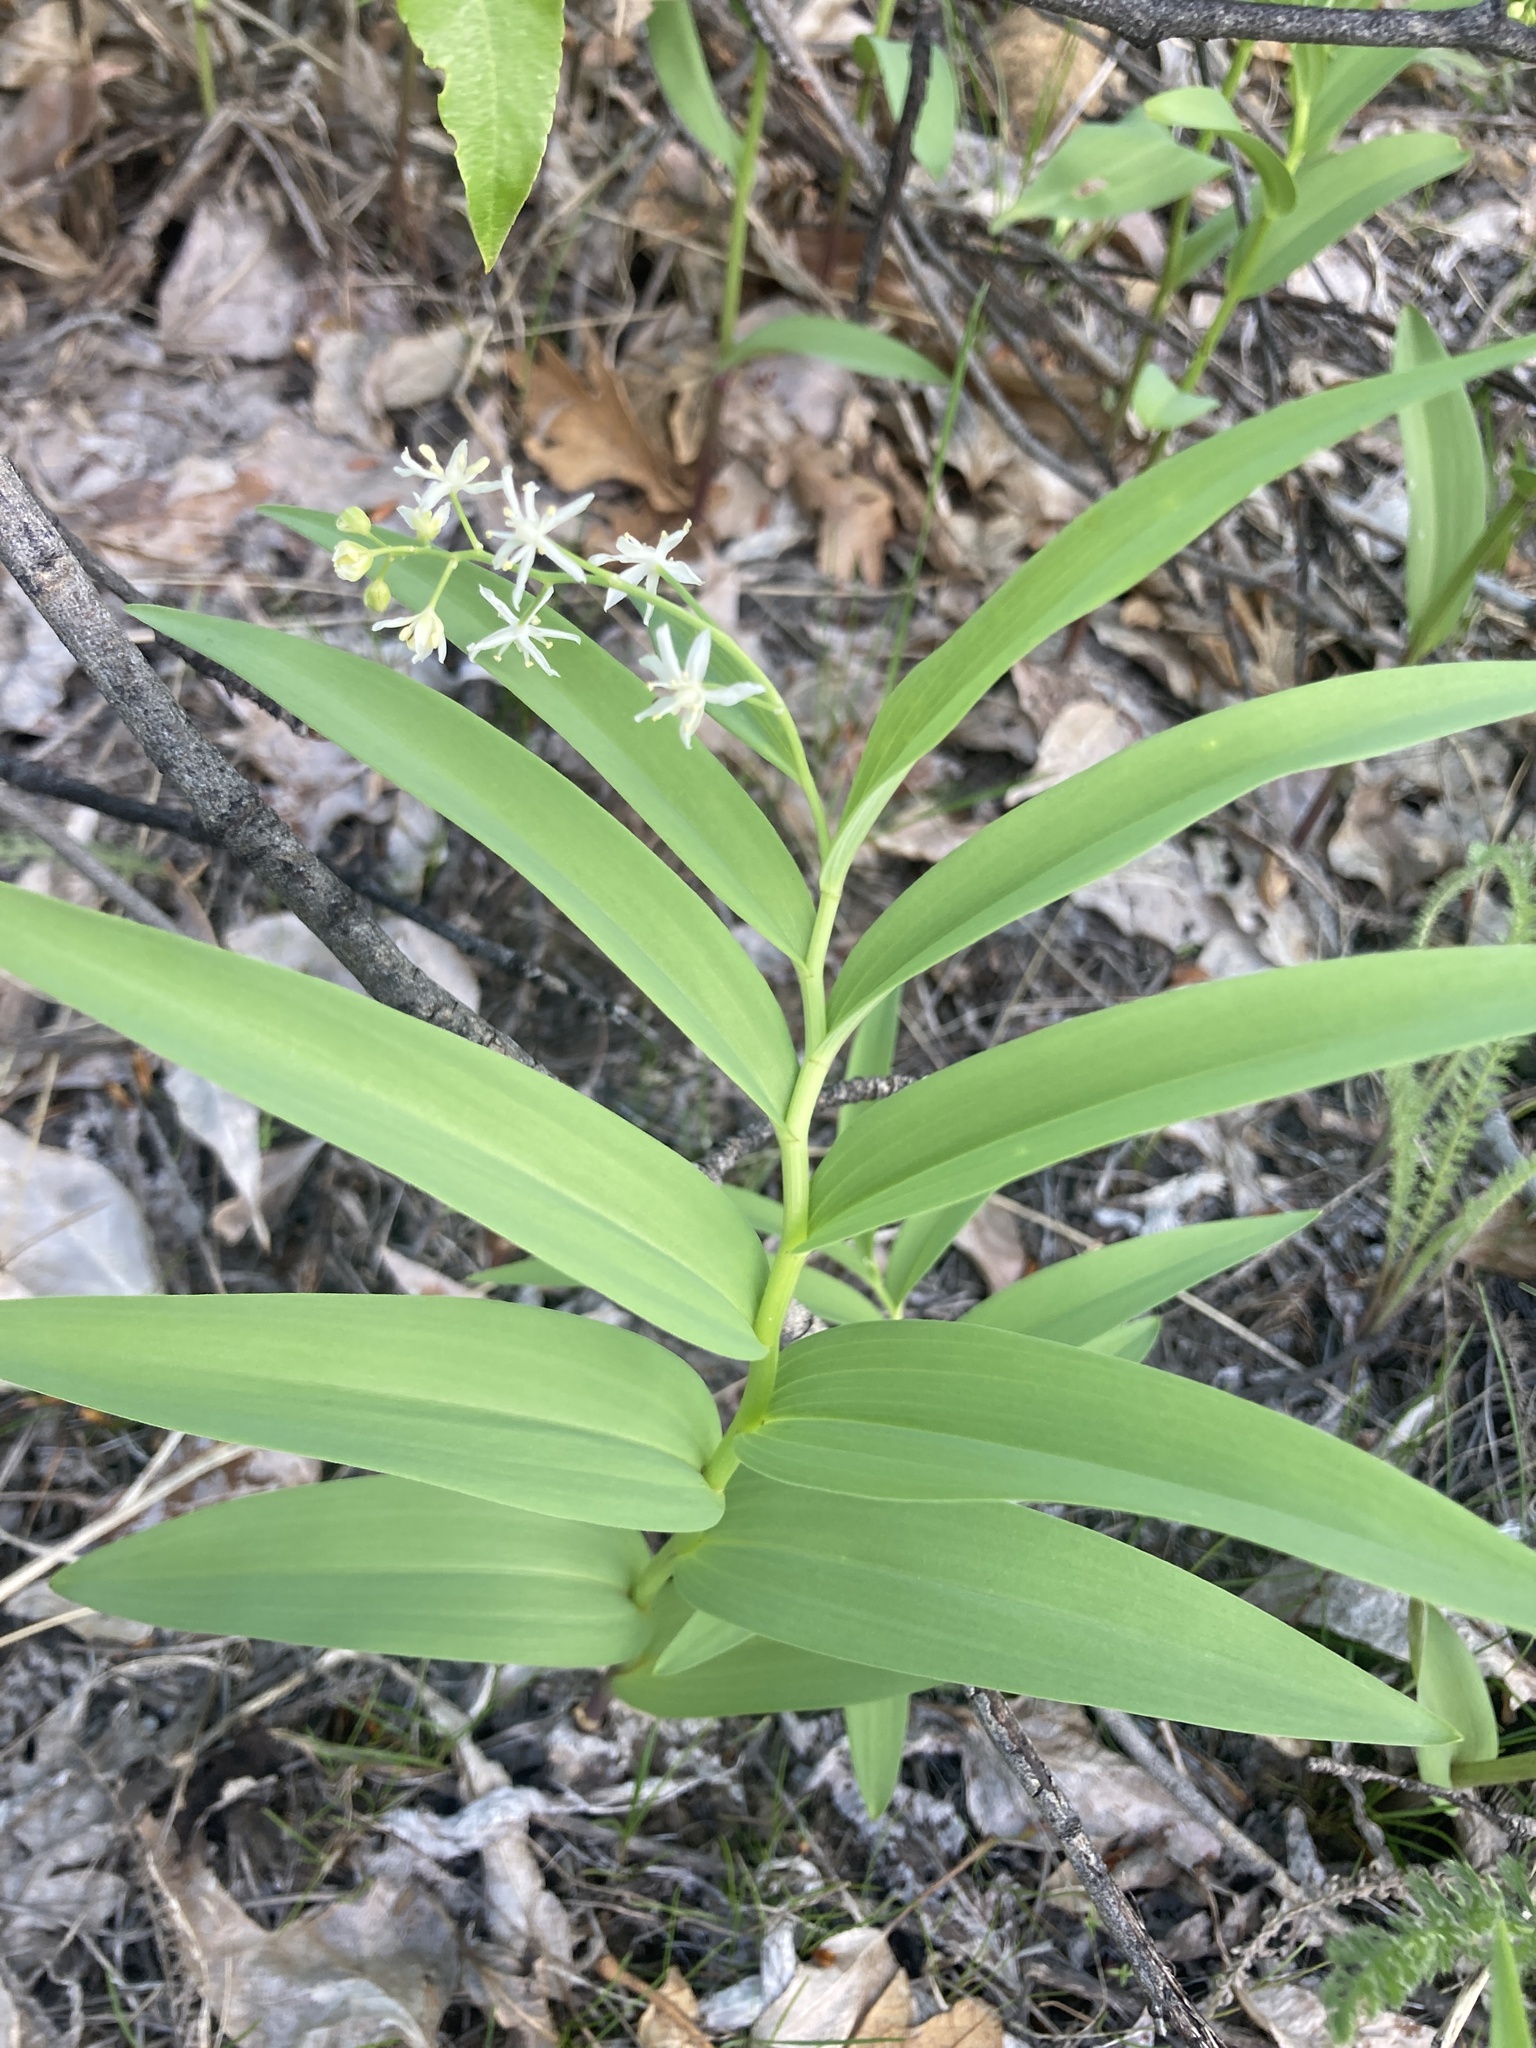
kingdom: Plantae
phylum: Tracheophyta
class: Liliopsida
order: Asparagales
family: Asparagaceae
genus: Maianthemum
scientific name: Maianthemum stellatum
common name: Little false solomon's seal
